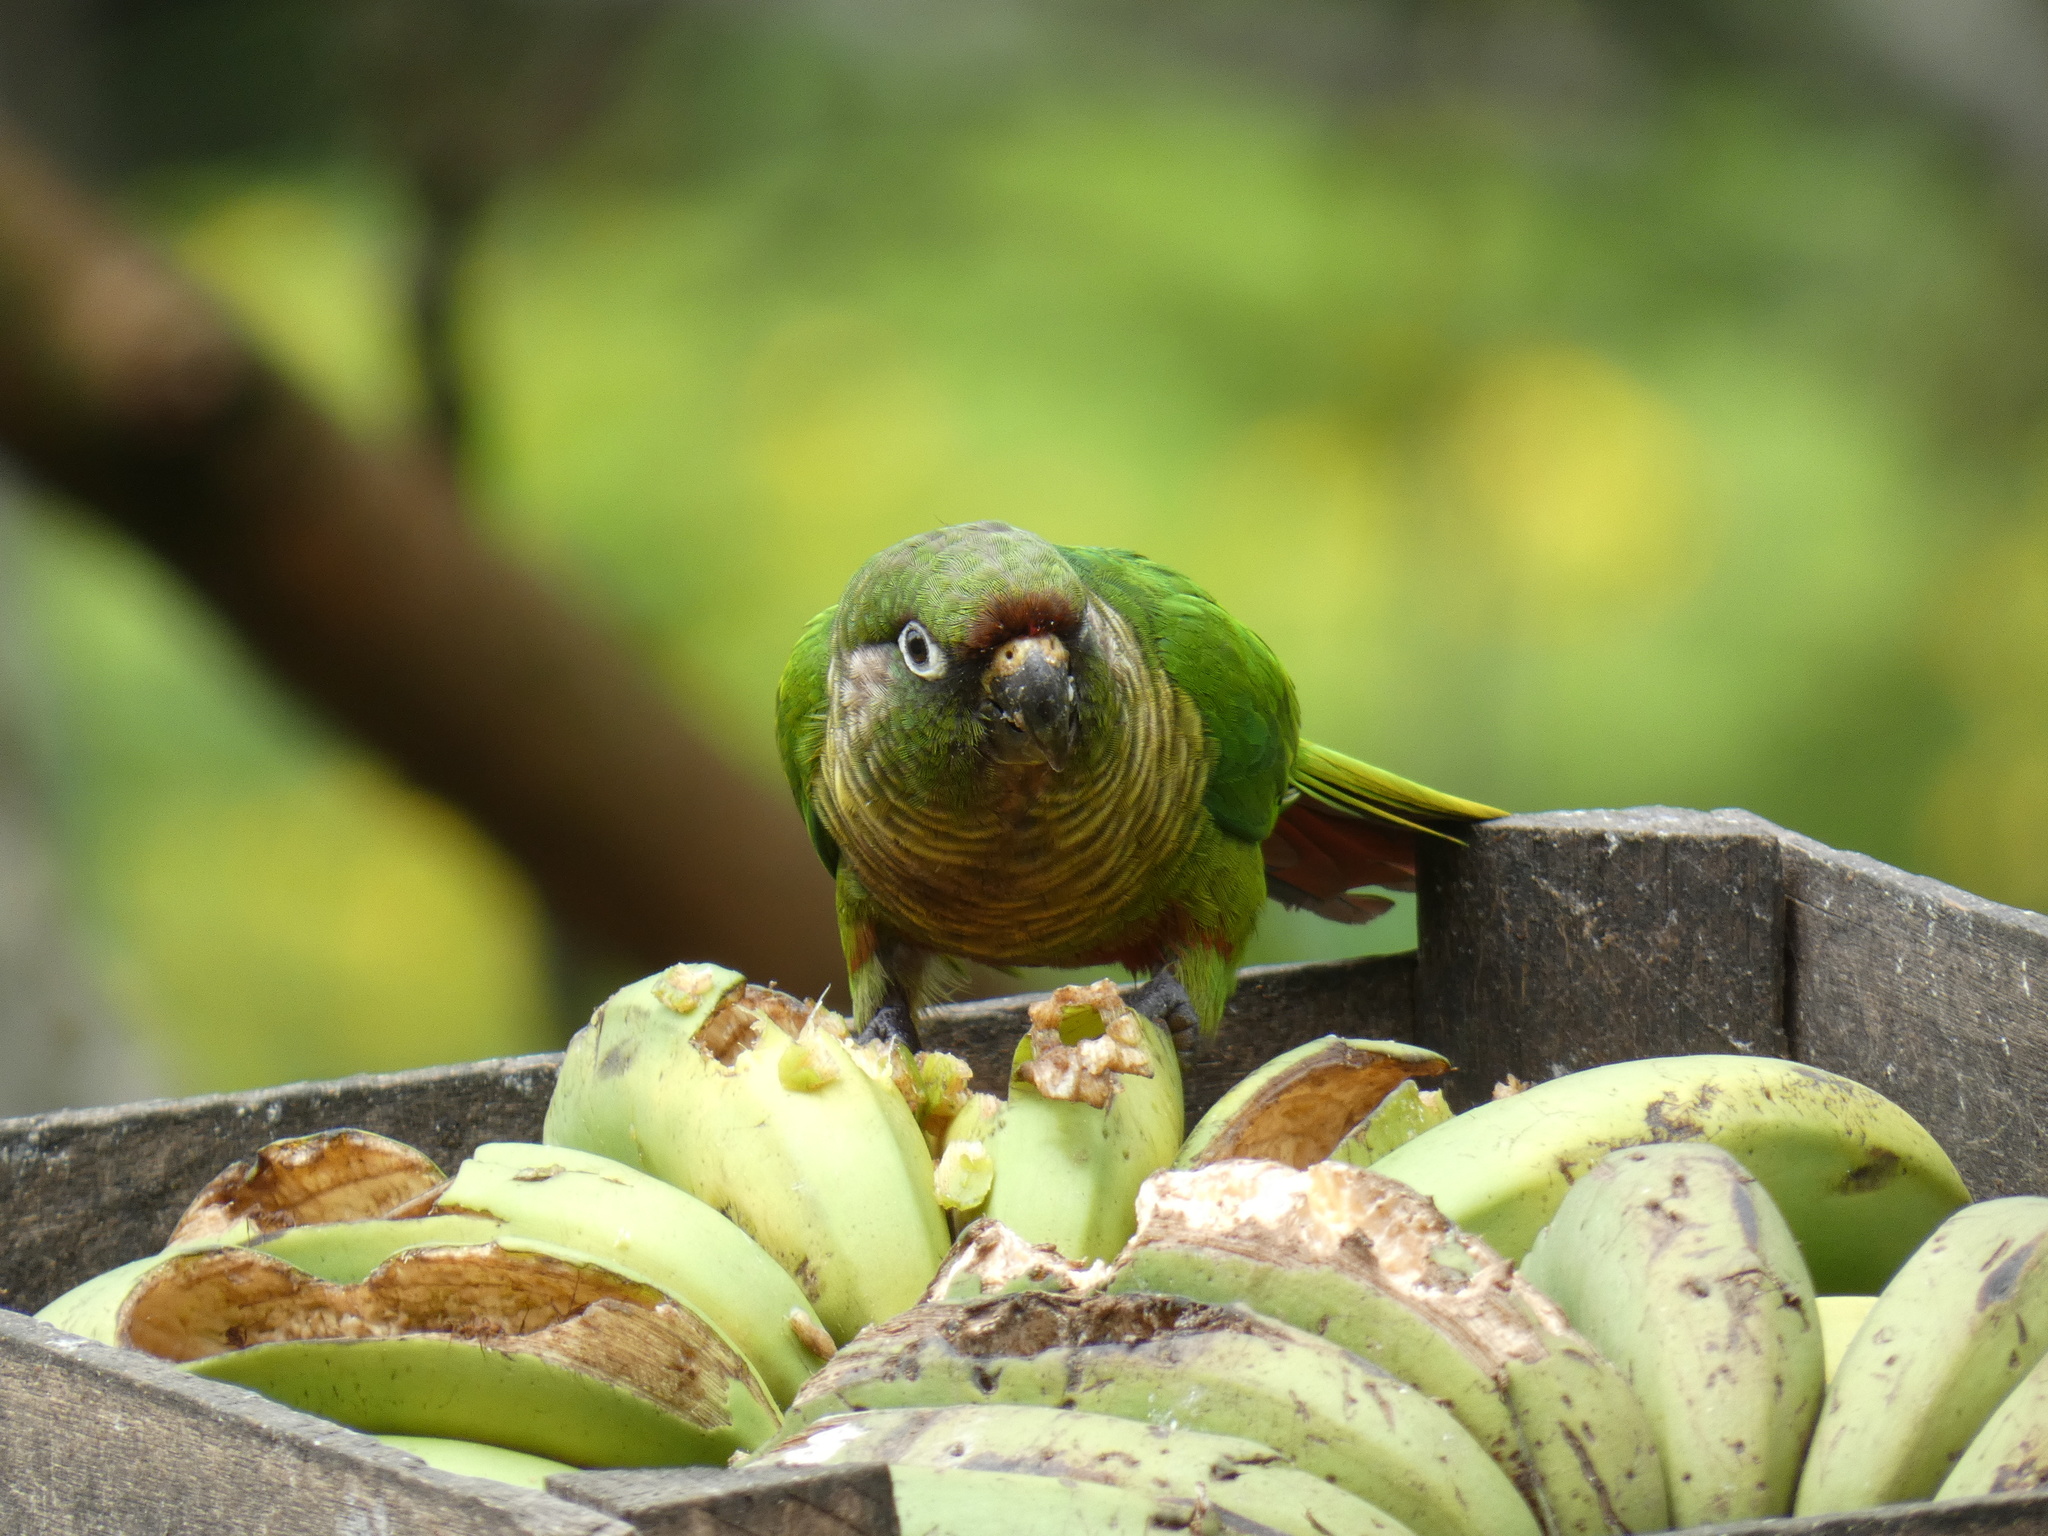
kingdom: Animalia
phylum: Chordata
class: Aves
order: Psittaciformes
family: Psittacidae
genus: Pyrrhura
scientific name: Pyrrhura frontalis
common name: Maroon-bellied parakeet
